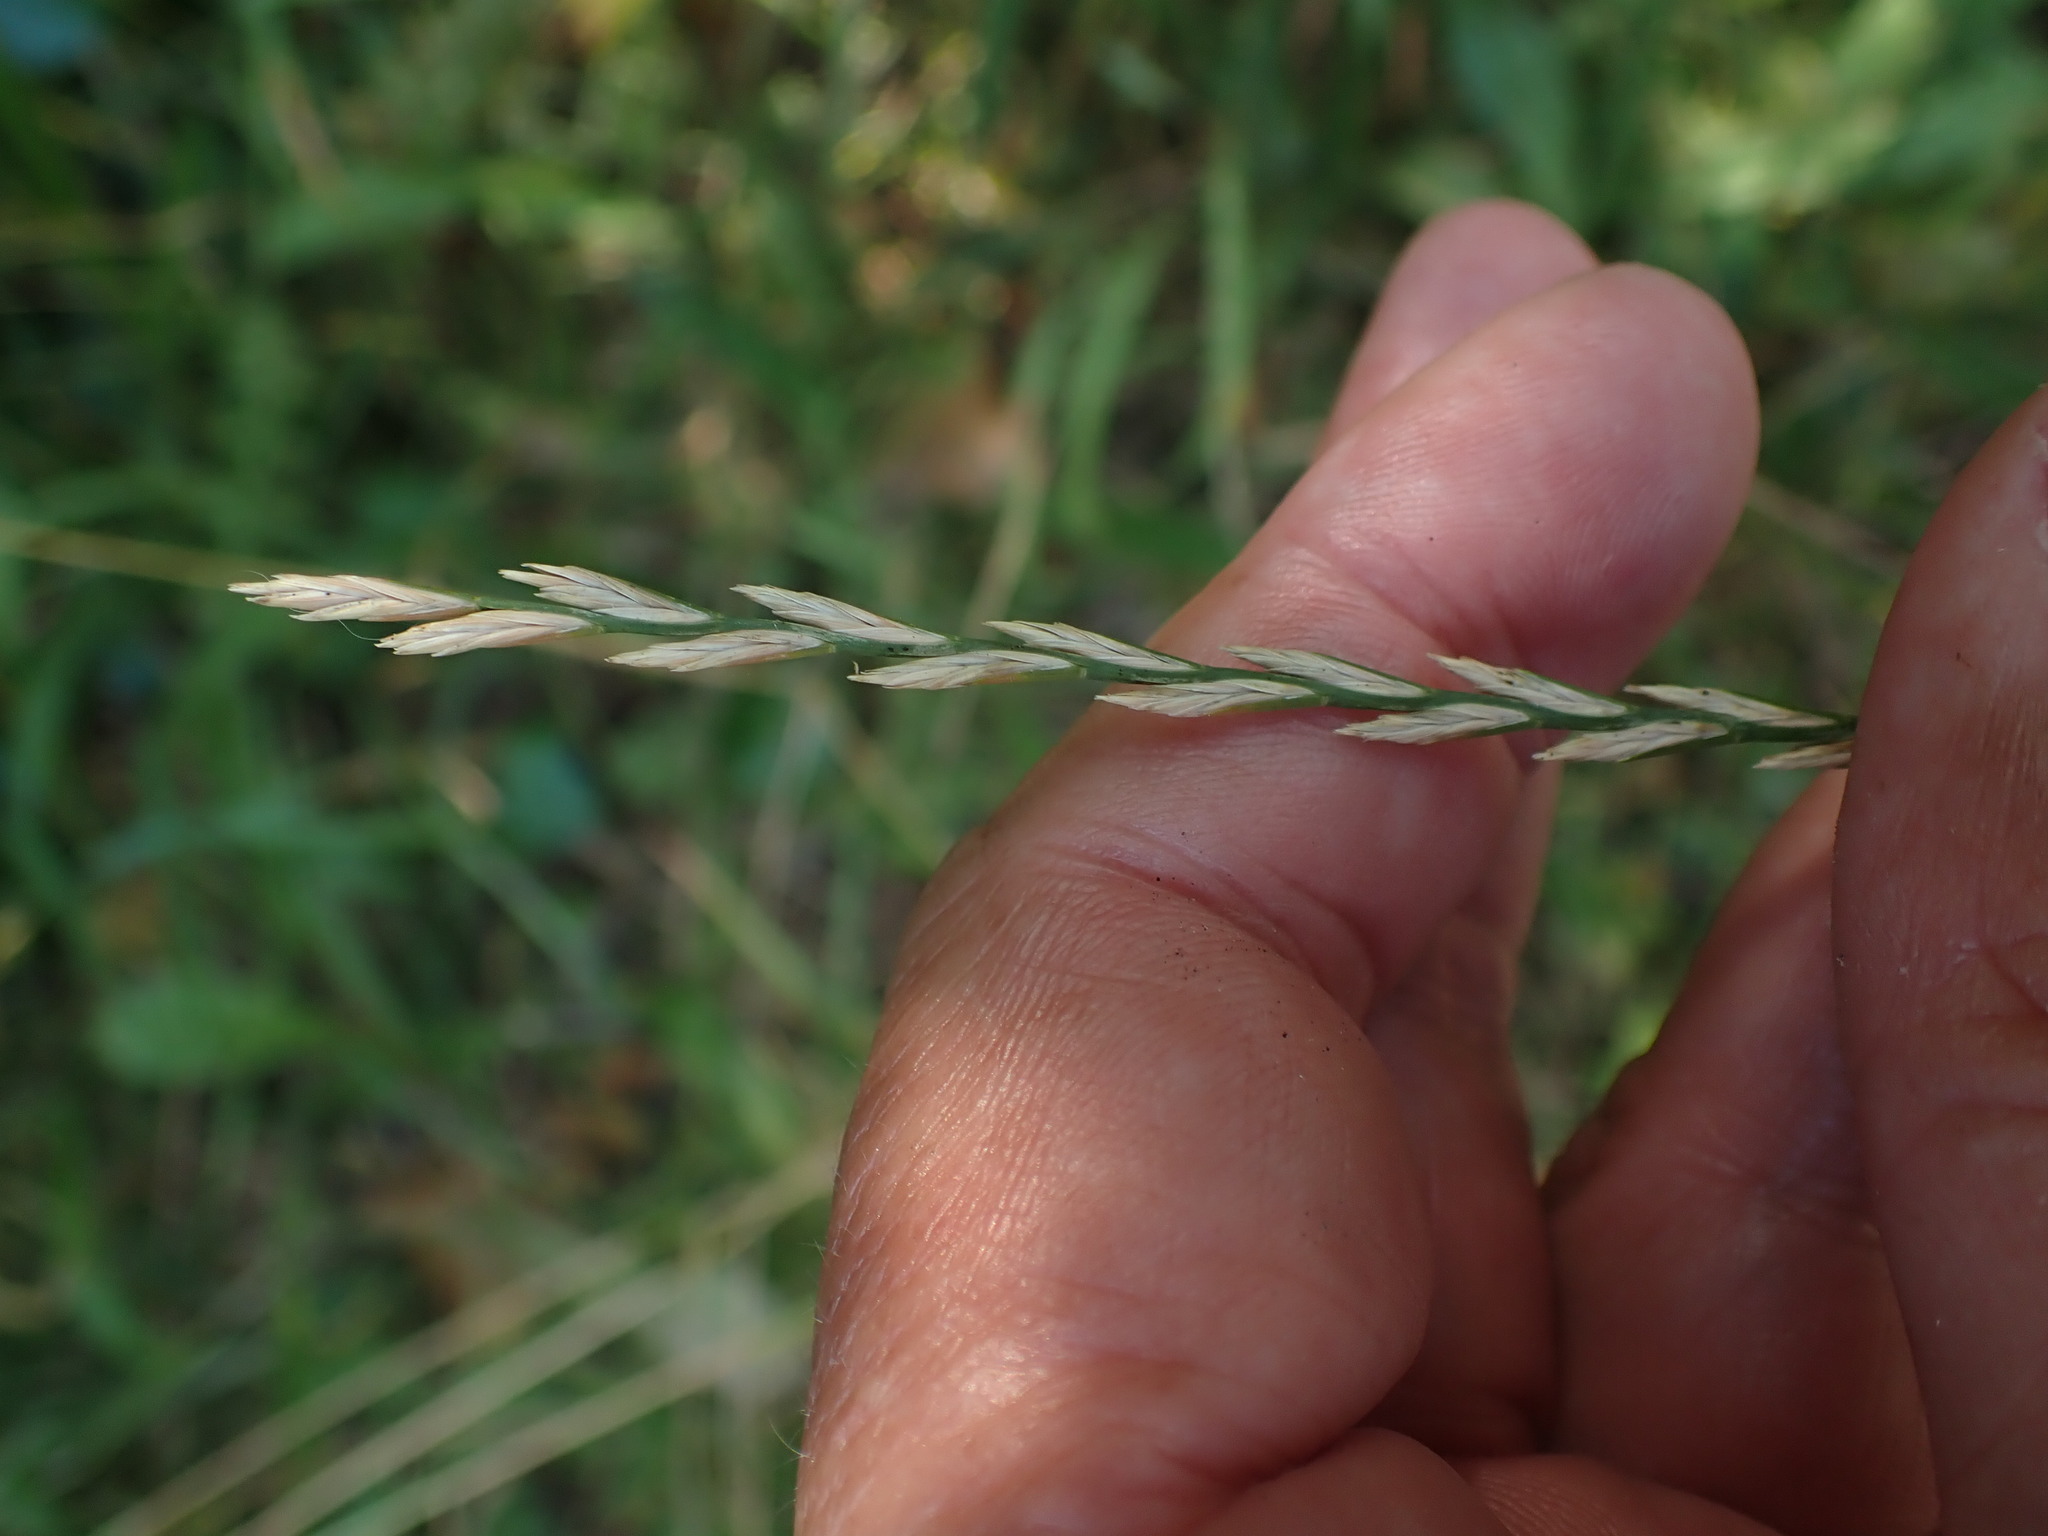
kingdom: Plantae
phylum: Tracheophyta
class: Liliopsida
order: Poales
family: Poaceae
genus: Lolium
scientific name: Lolium perenne
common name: Perennial ryegrass
